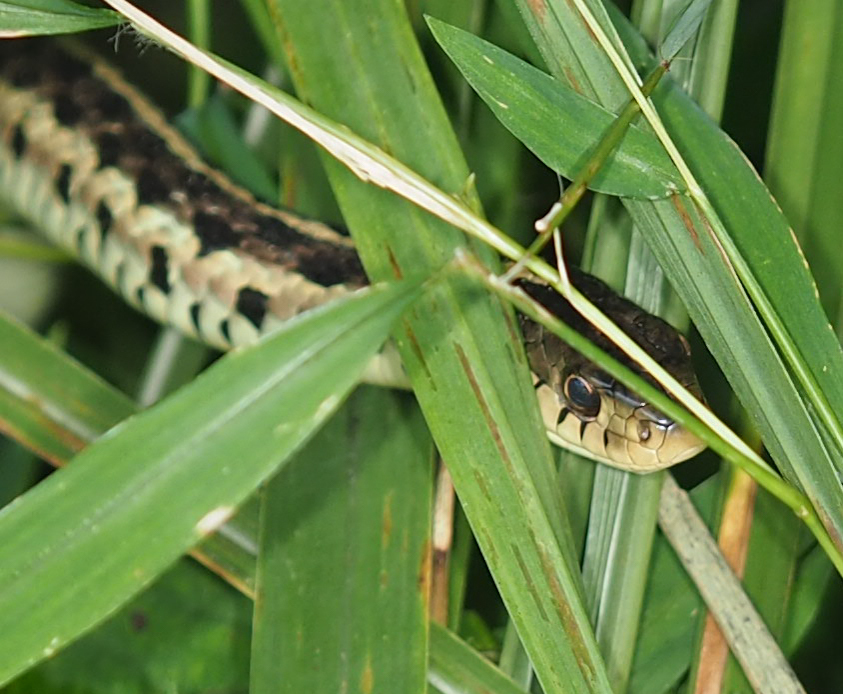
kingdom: Animalia
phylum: Chordata
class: Squamata
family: Colubridae
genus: Thamnophis
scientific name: Thamnophis sirtalis
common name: Common garter snake
